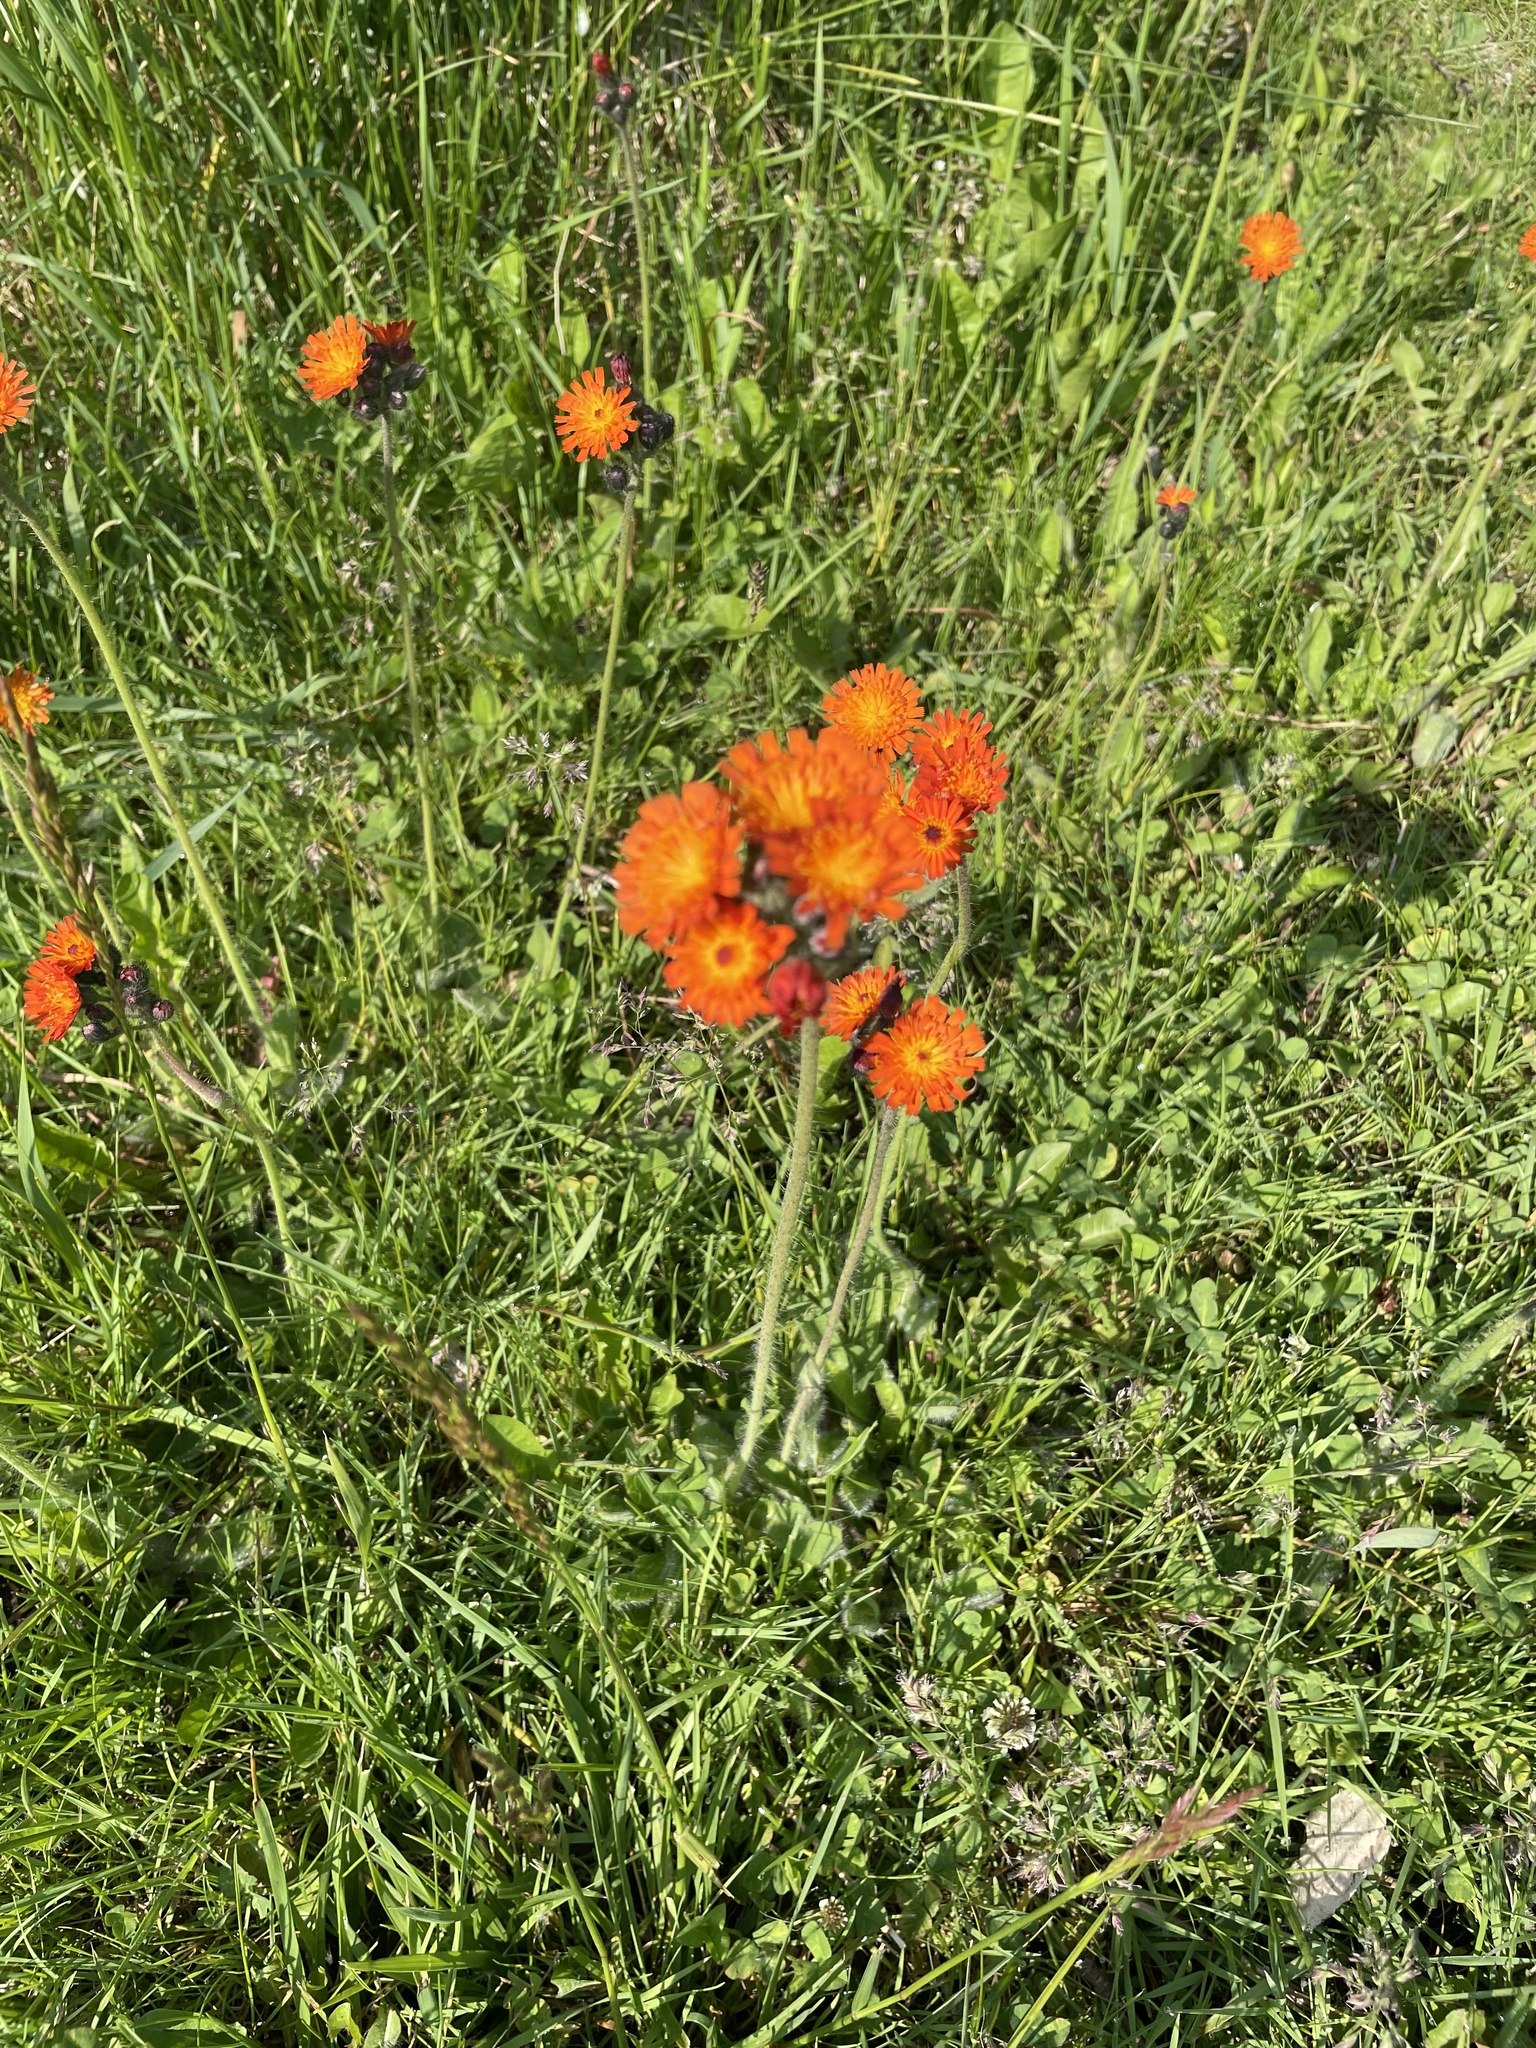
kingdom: Plantae
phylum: Tracheophyta
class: Magnoliopsida
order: Asterales
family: Asteraceae
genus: Pilosella
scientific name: Pilosella aurantiaca
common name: Fox-and-cubs
